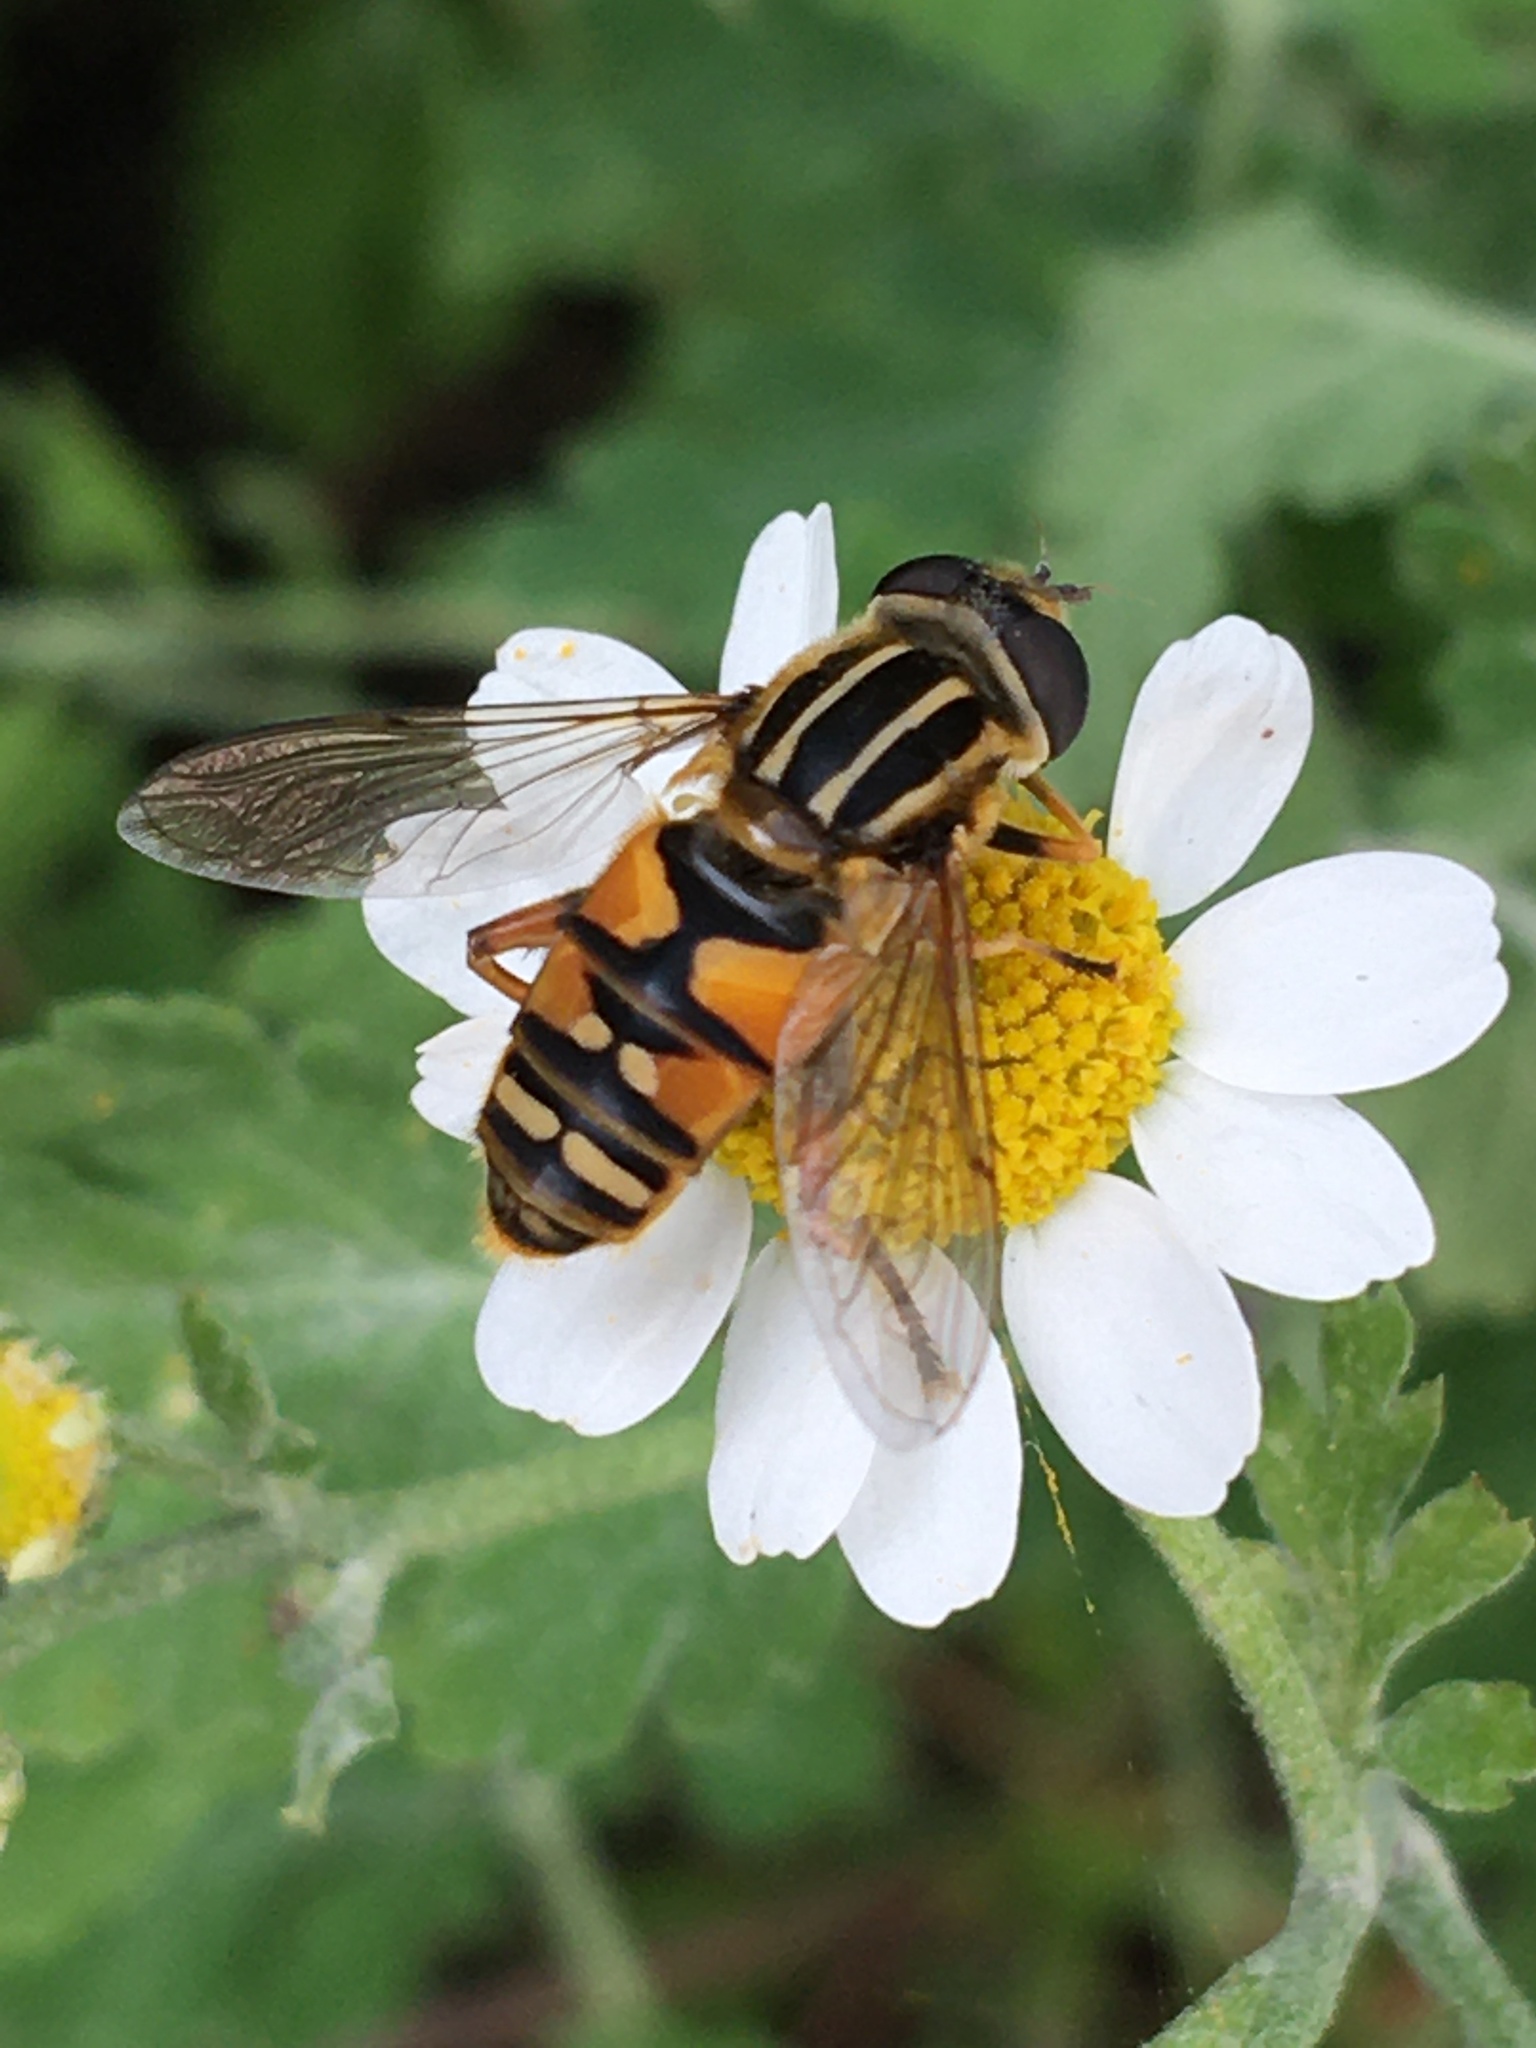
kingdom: Animalia
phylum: Arthropoda
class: Insecta
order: Diptera
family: Syrphidae
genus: Helophilus
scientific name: Helophilus pendulus
